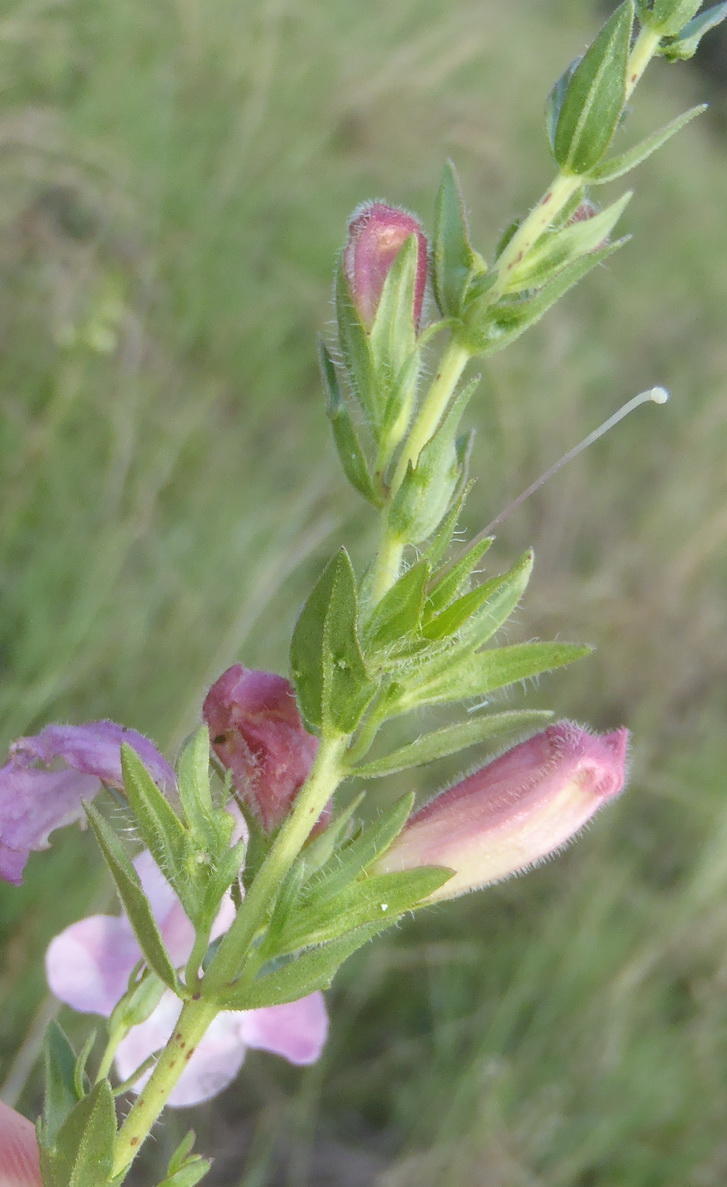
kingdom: Plantae
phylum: Tracheophyta
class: Magnoliopsida
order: Lamiales
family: Orobanchaceae
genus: Graderia
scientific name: Graderia subintegra
